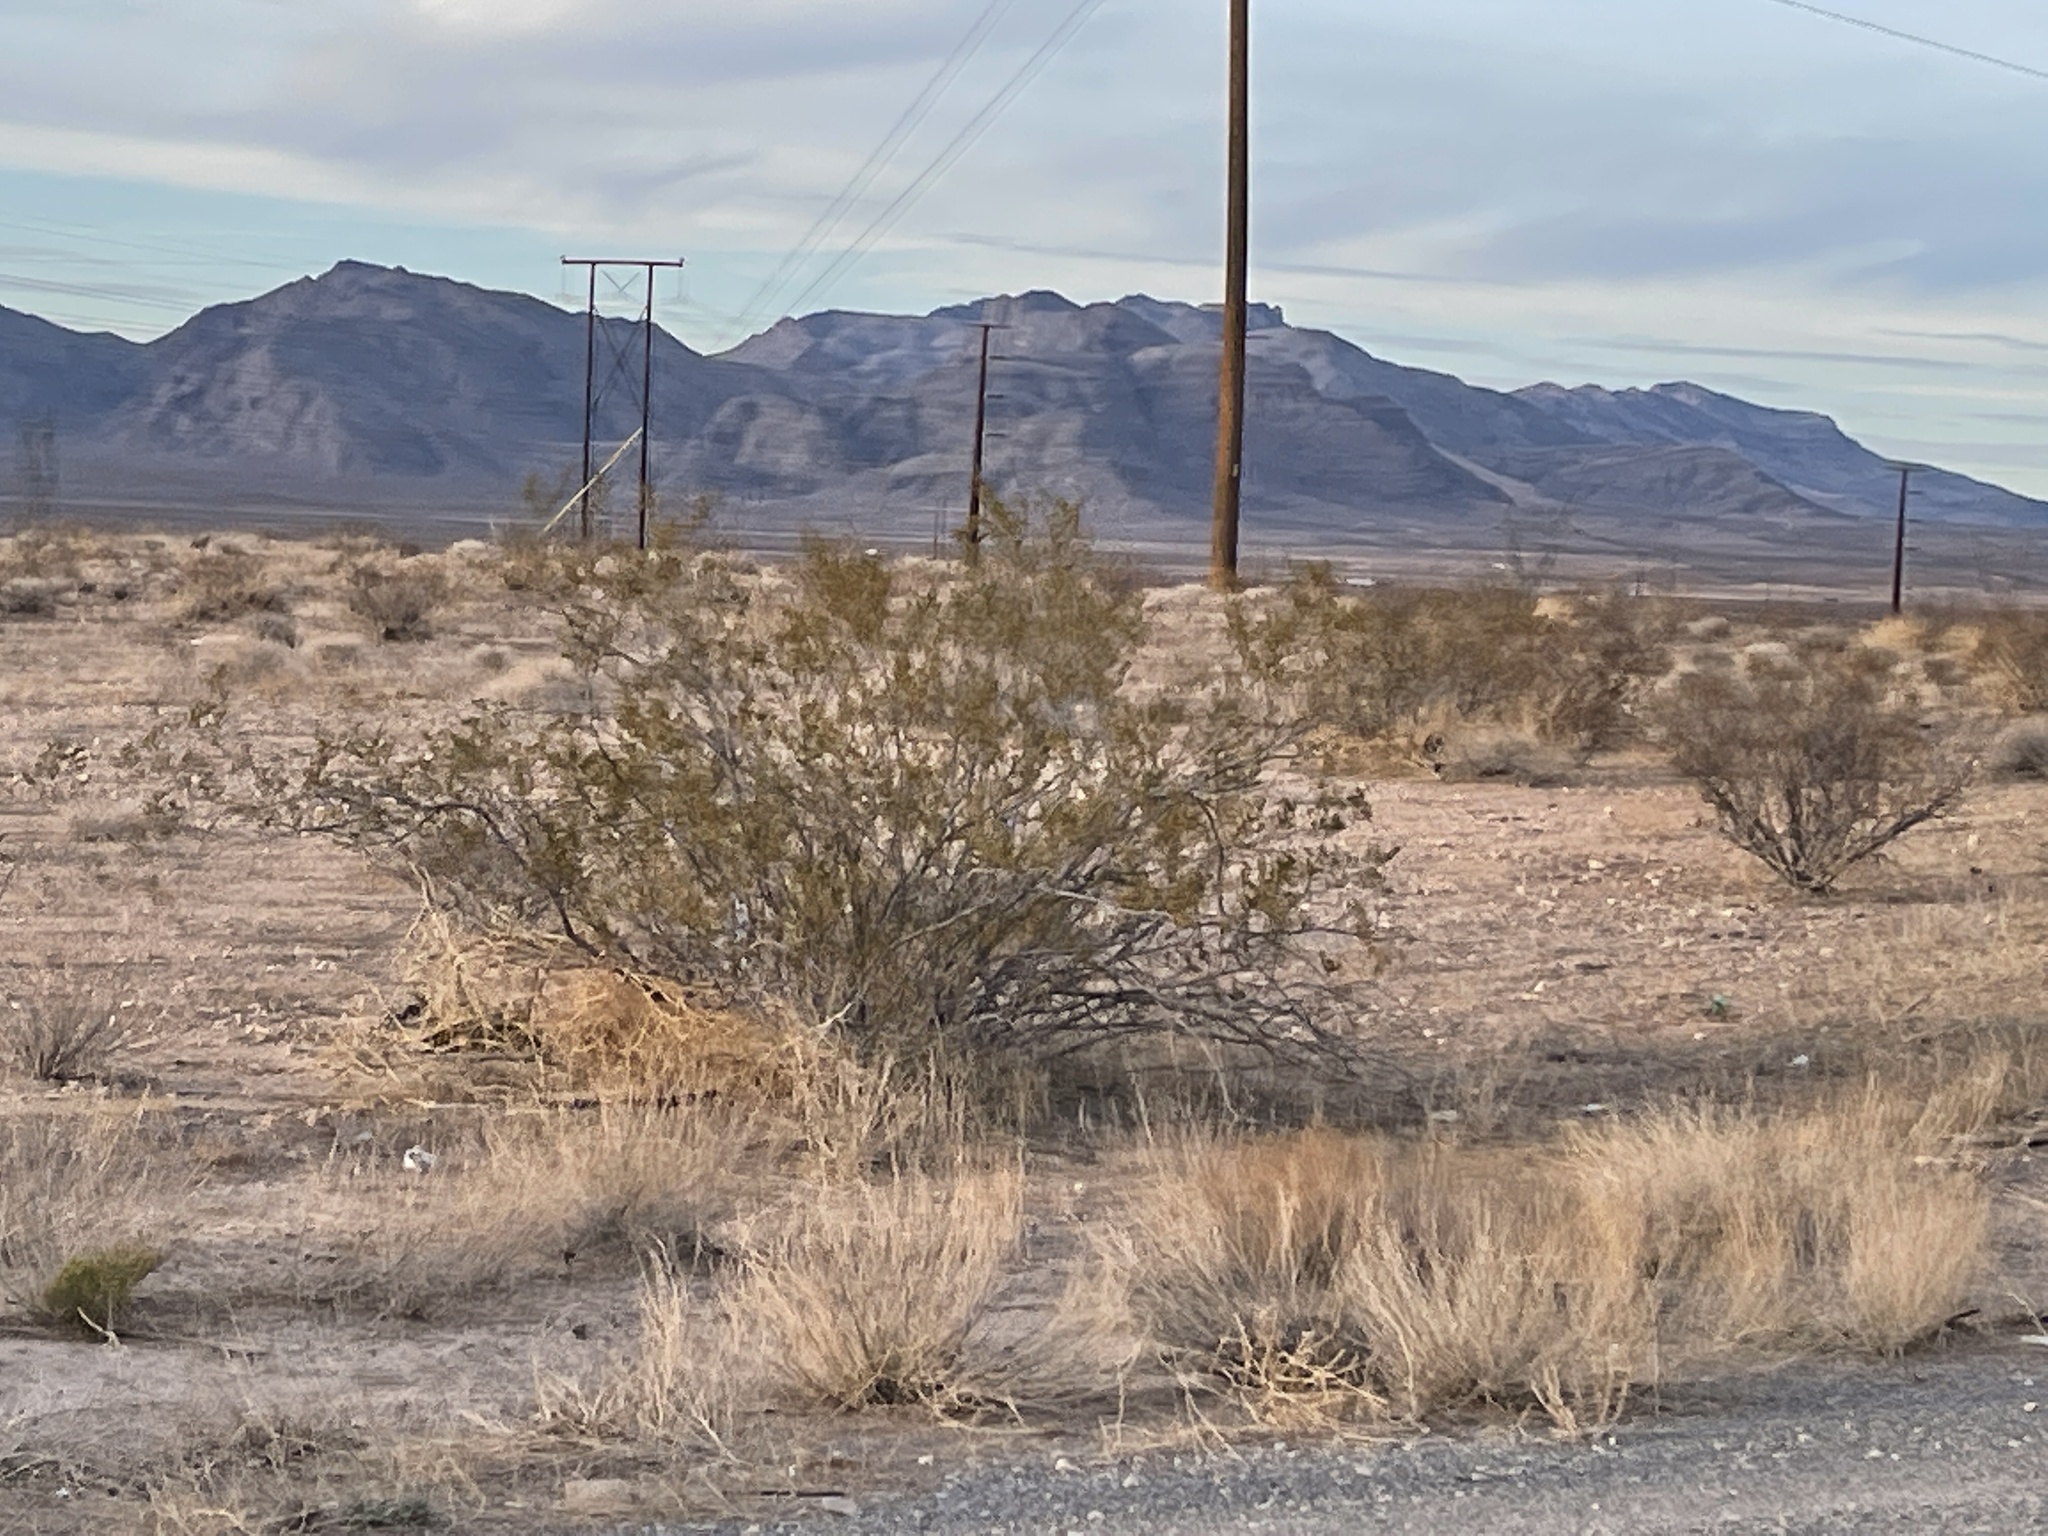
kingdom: Plantae
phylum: Tracheophyta
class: Magnoliopsida
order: Zygophyllales
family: Zygophyllaceae
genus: Larrea
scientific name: Larrea tridentata
